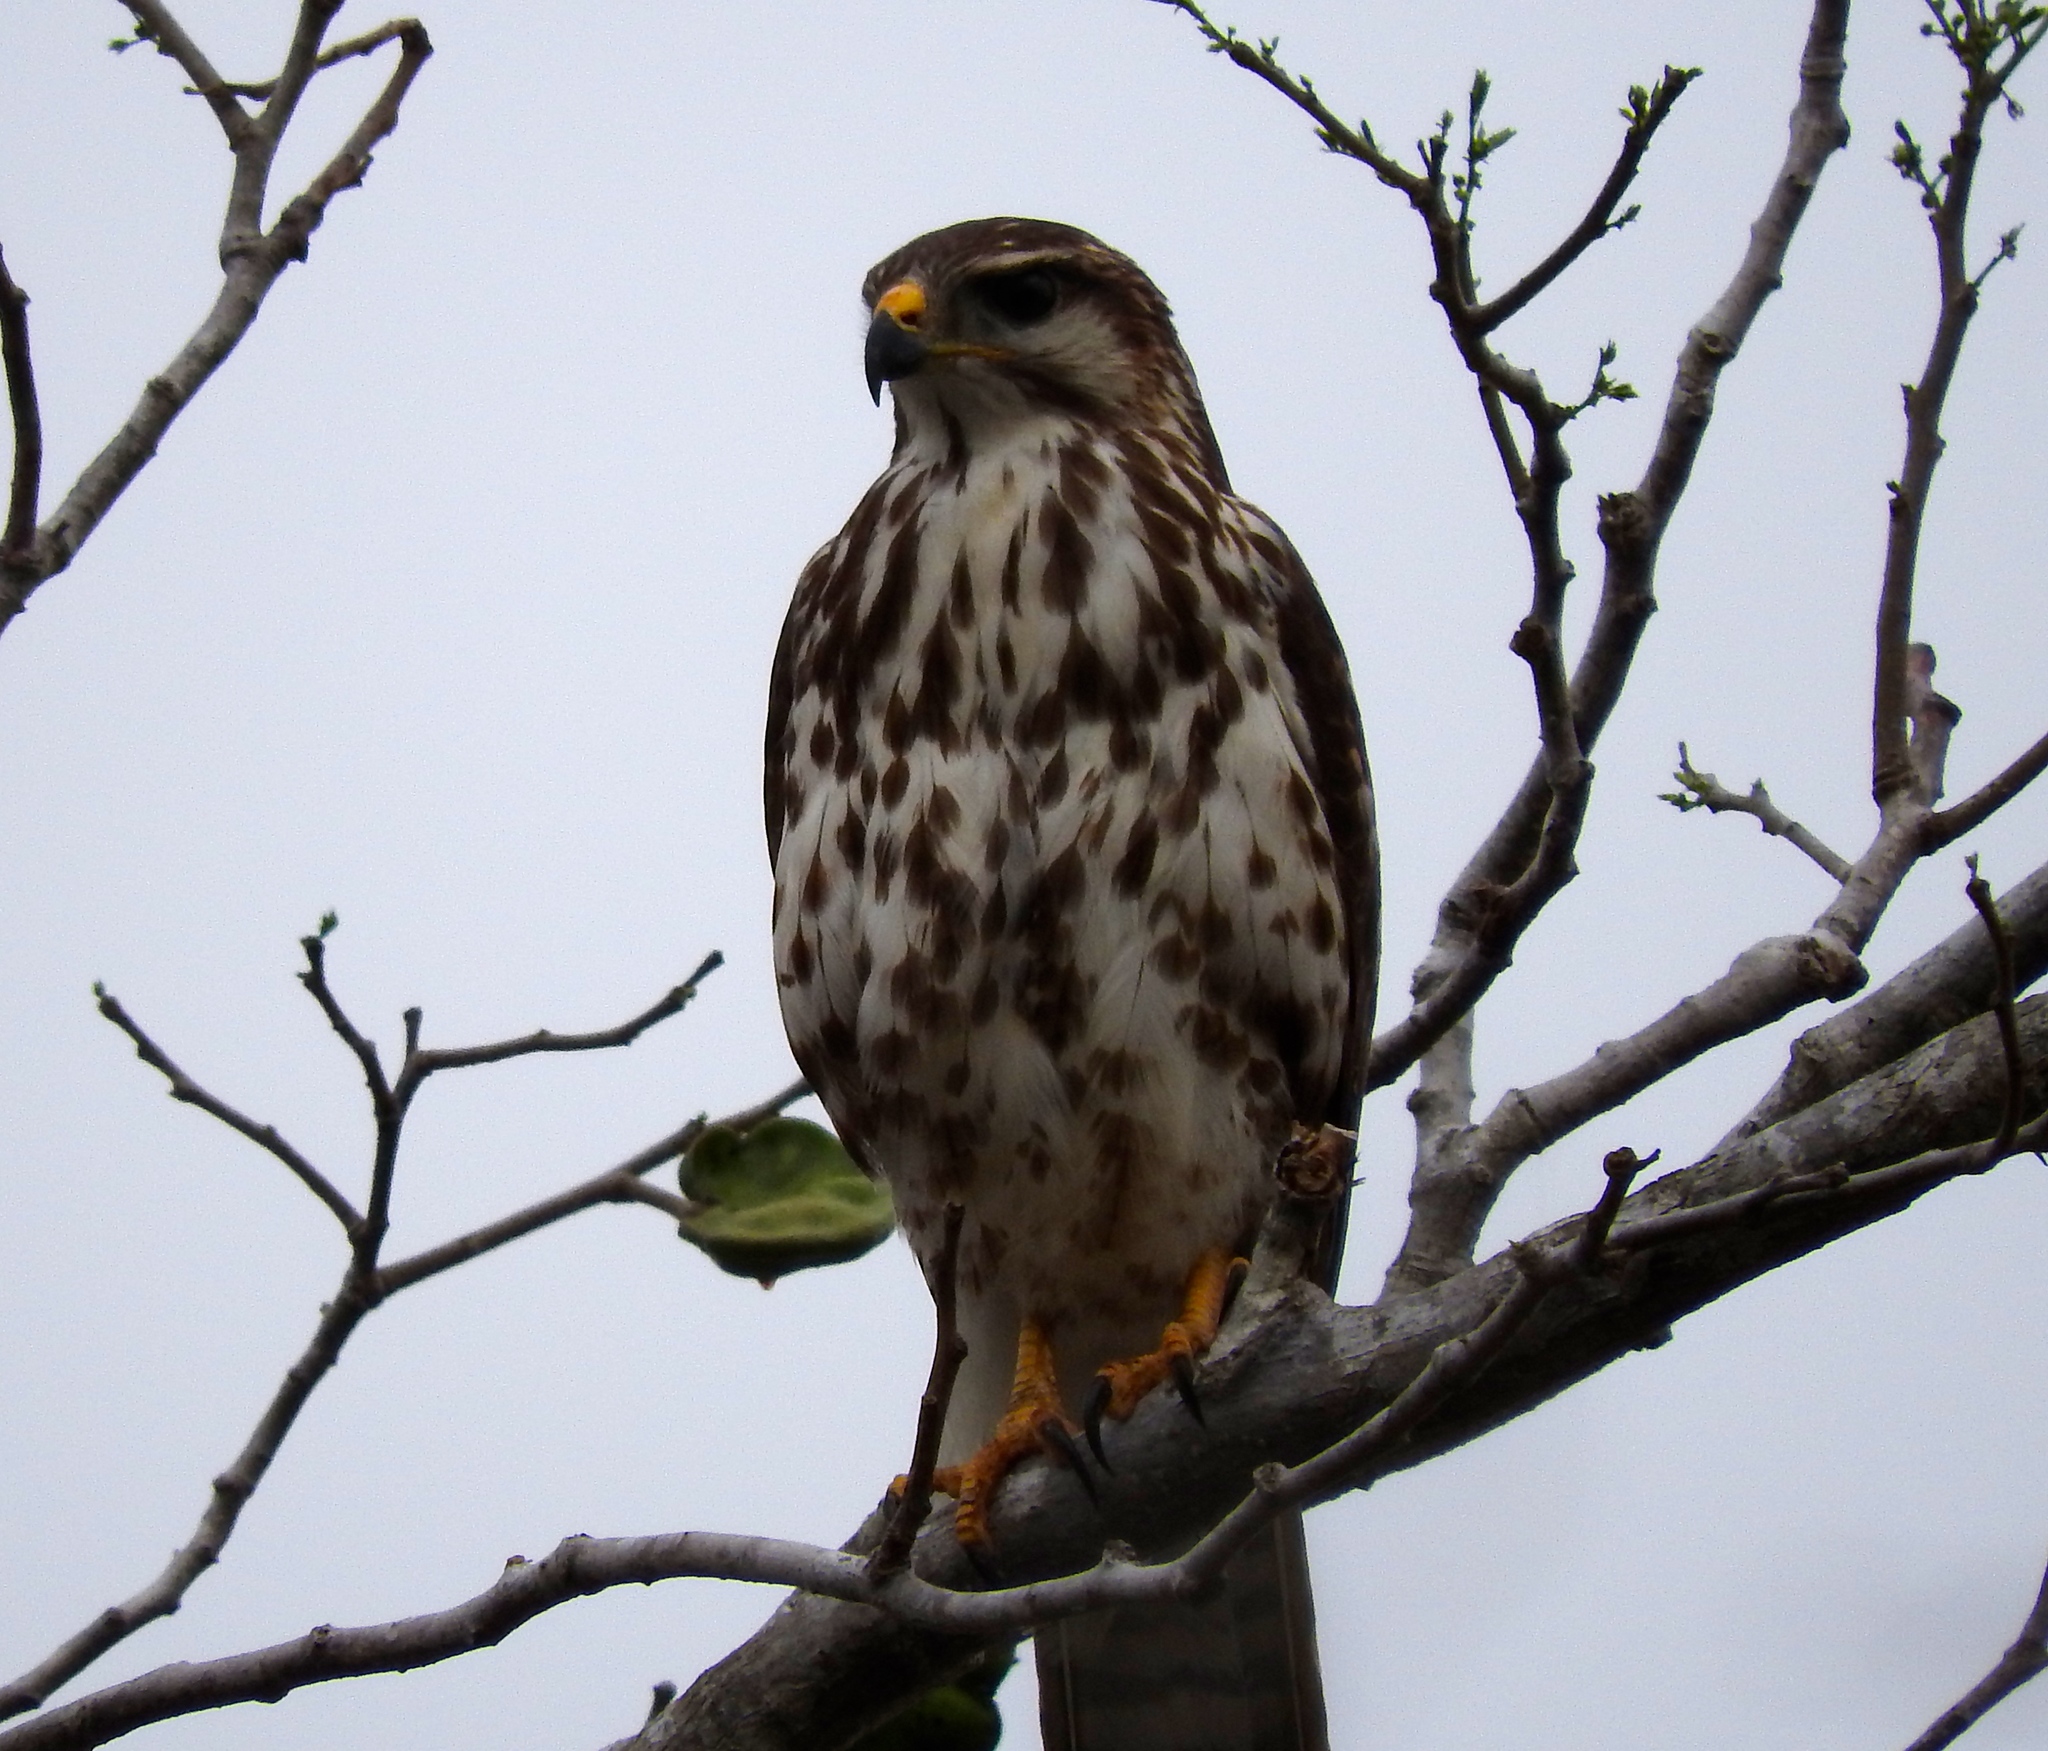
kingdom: Animalia
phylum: Chordata
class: Aves
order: Accipitriformes
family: Accipitridae
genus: Buteo
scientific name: Buteo nitidus
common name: Grey-lined hawk
